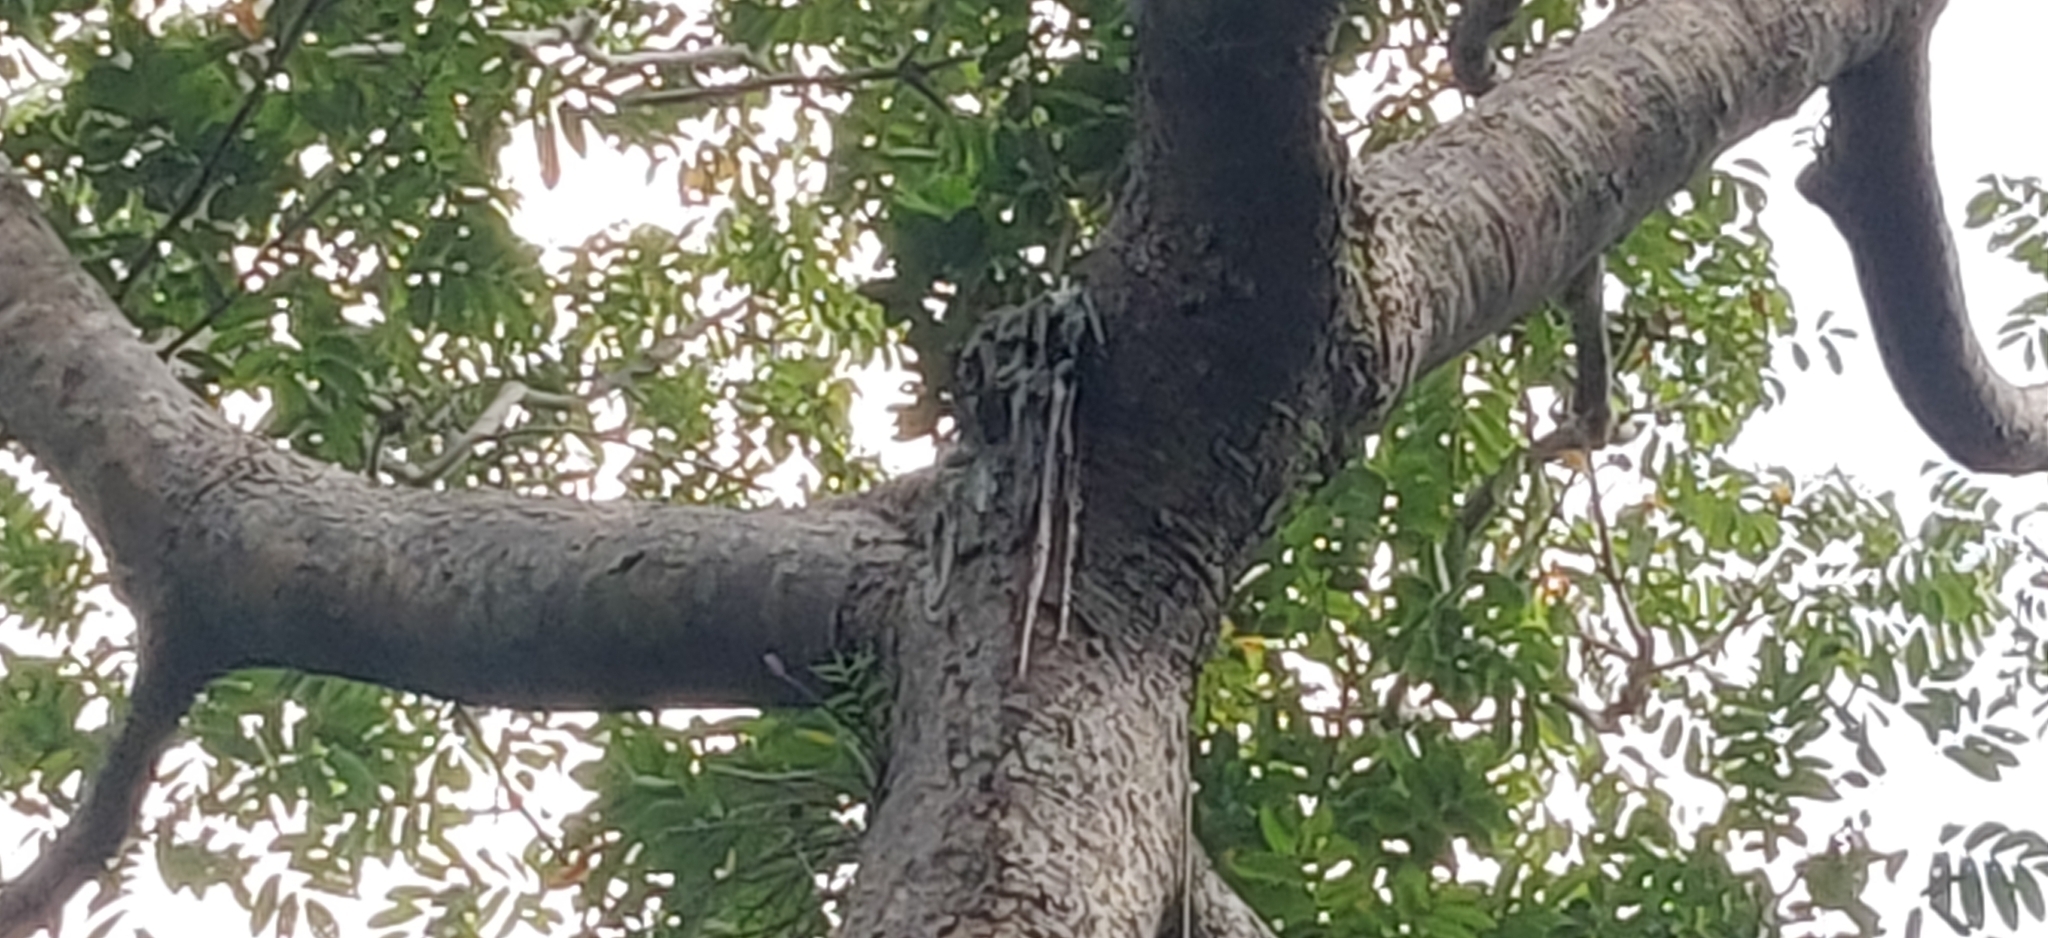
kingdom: Plantae
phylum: Tracheophyta
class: Magnoliopsida
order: Sapindales
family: Burseraceae
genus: Canarium
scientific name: Canarium euphyllum
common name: White dhup
